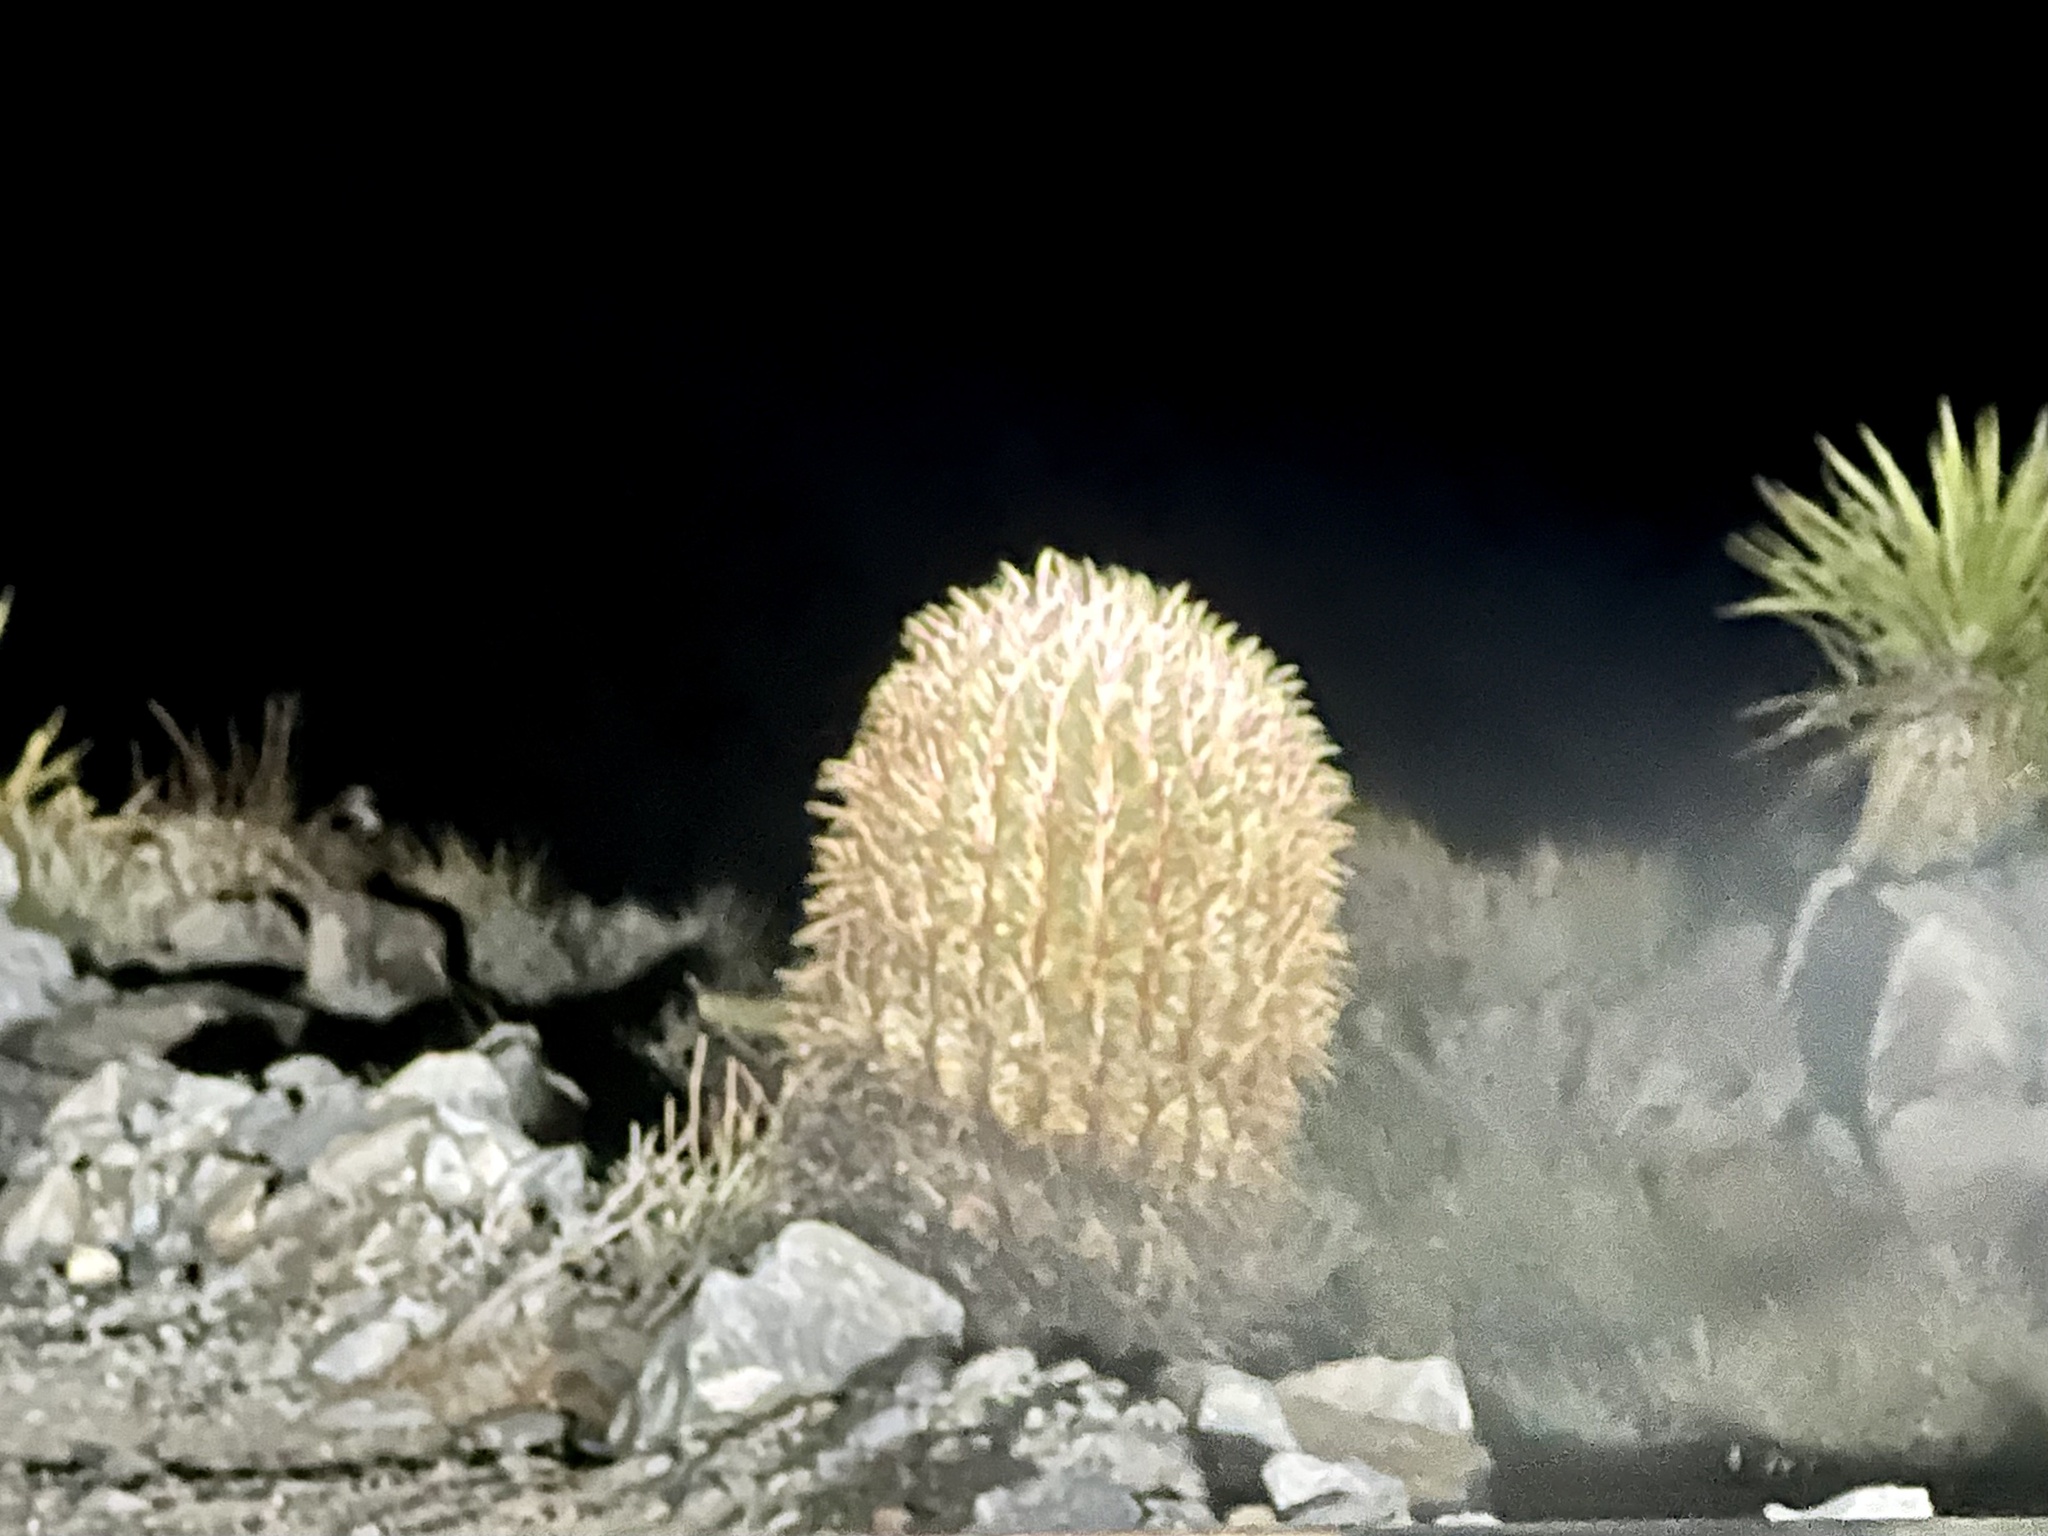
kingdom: Plantae
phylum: Tracheophyta
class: Magnoliopsida
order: Caryophyllales
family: Cactaceae
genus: Ferocactus
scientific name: Ferocactus cylindraceus
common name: California barrel cactus
